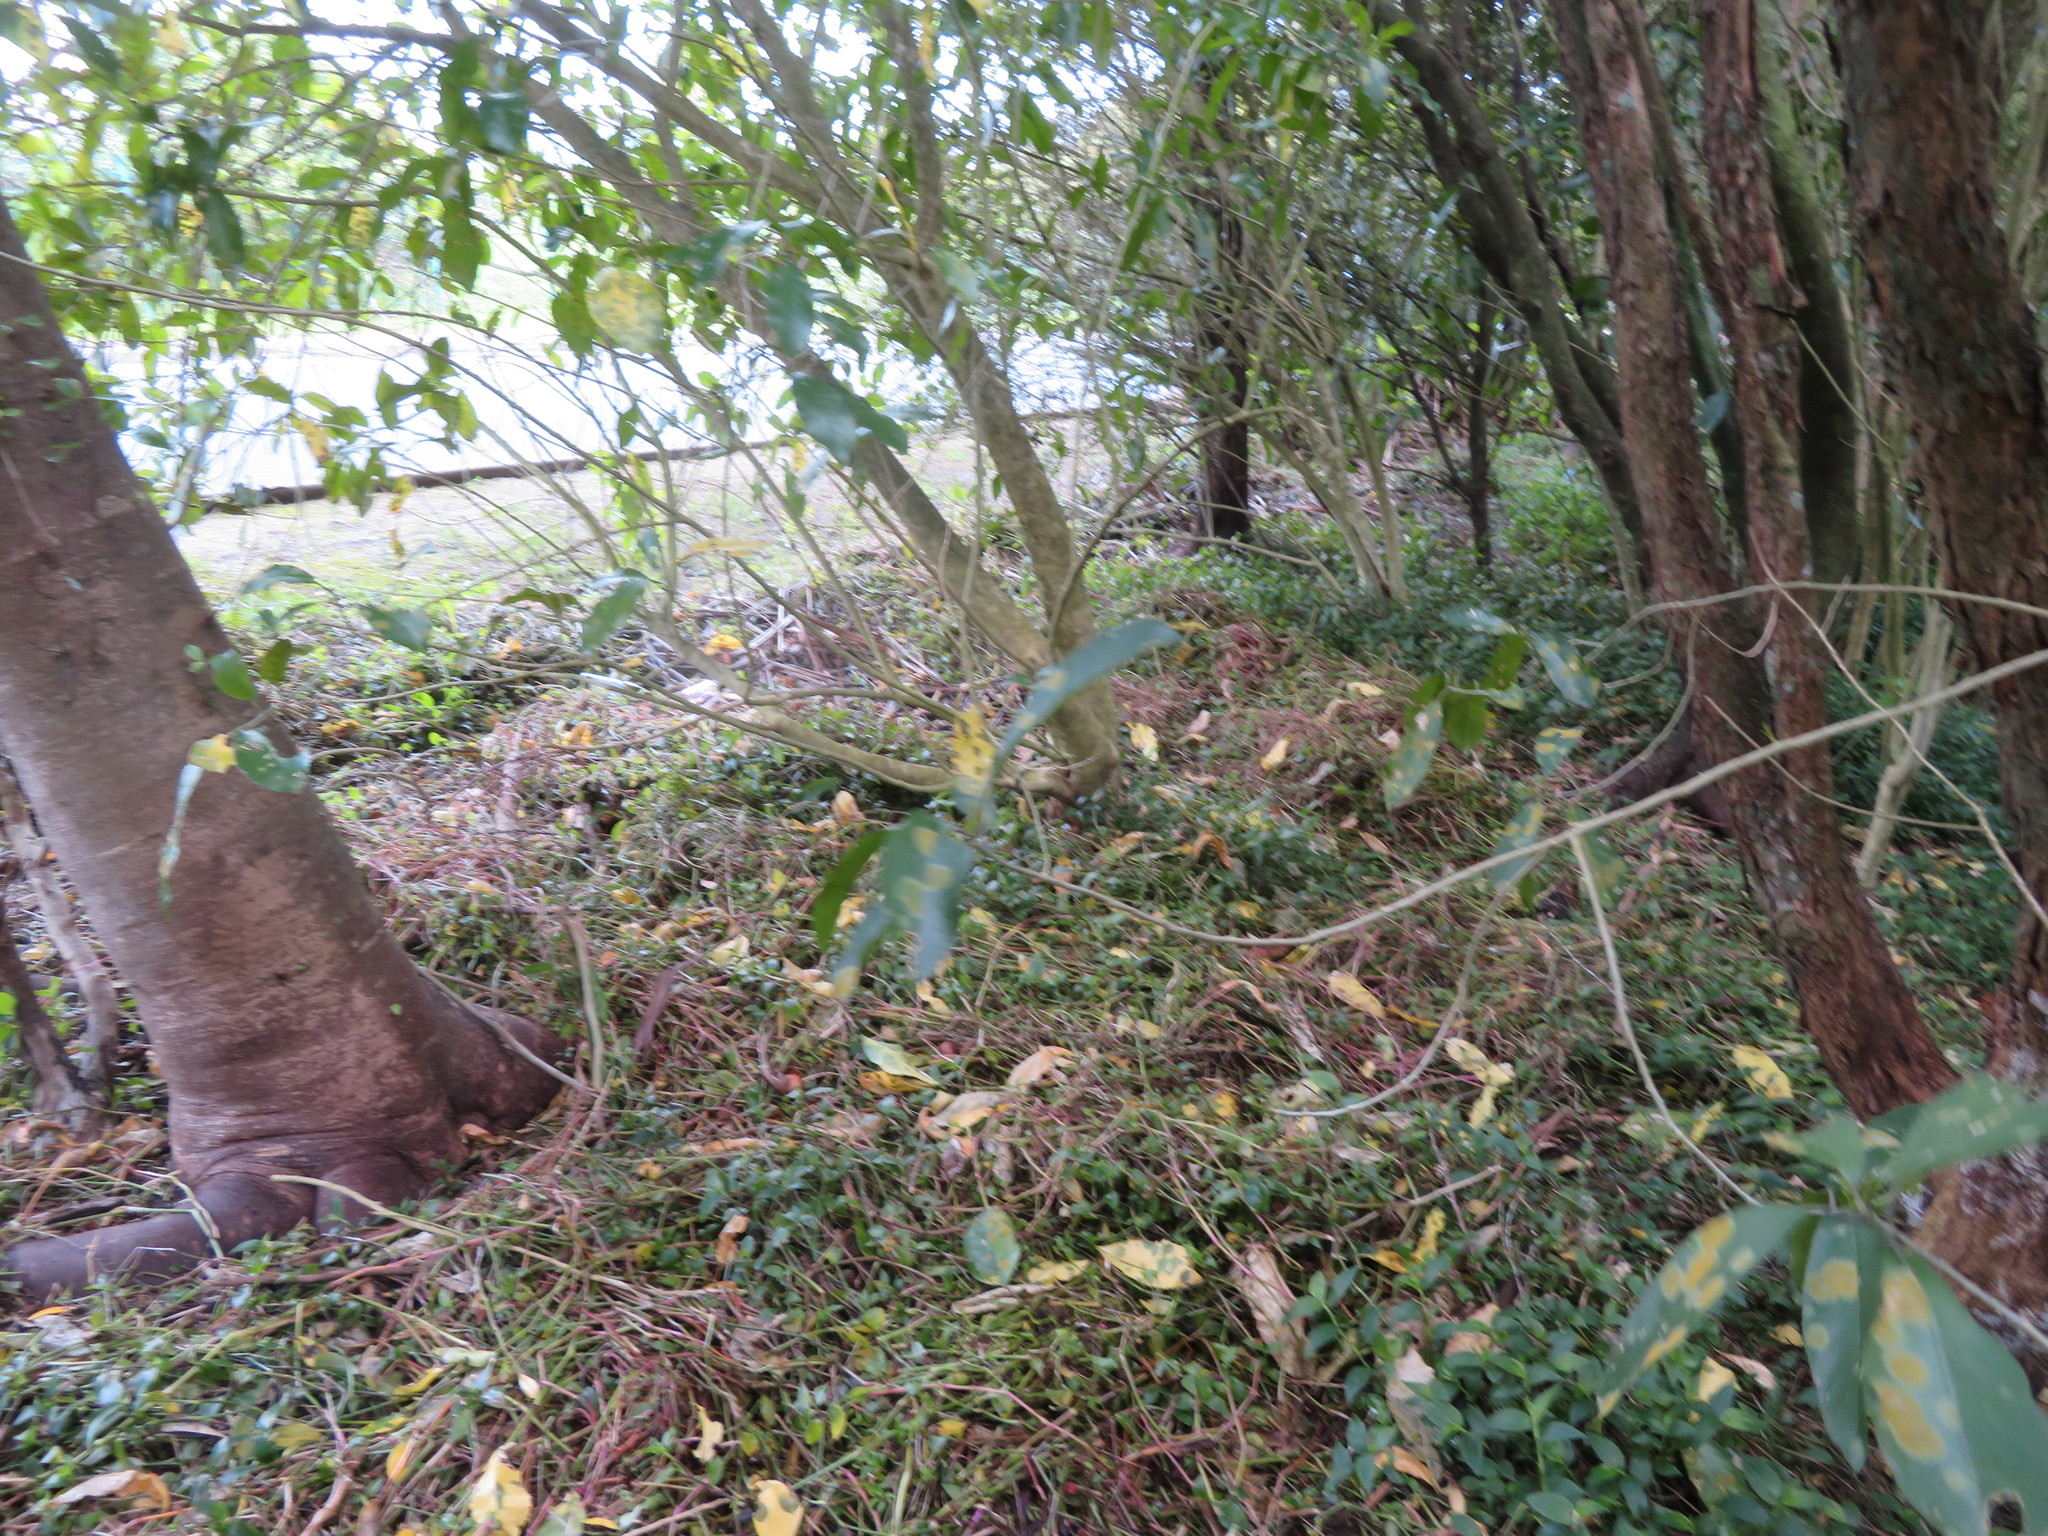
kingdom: Plantae
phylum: Tracheophyta
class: Magnoliopsida
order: Malpighiales
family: Violaceae
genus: Melicytus
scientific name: Melicytus ramiflorus
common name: Mahoe
